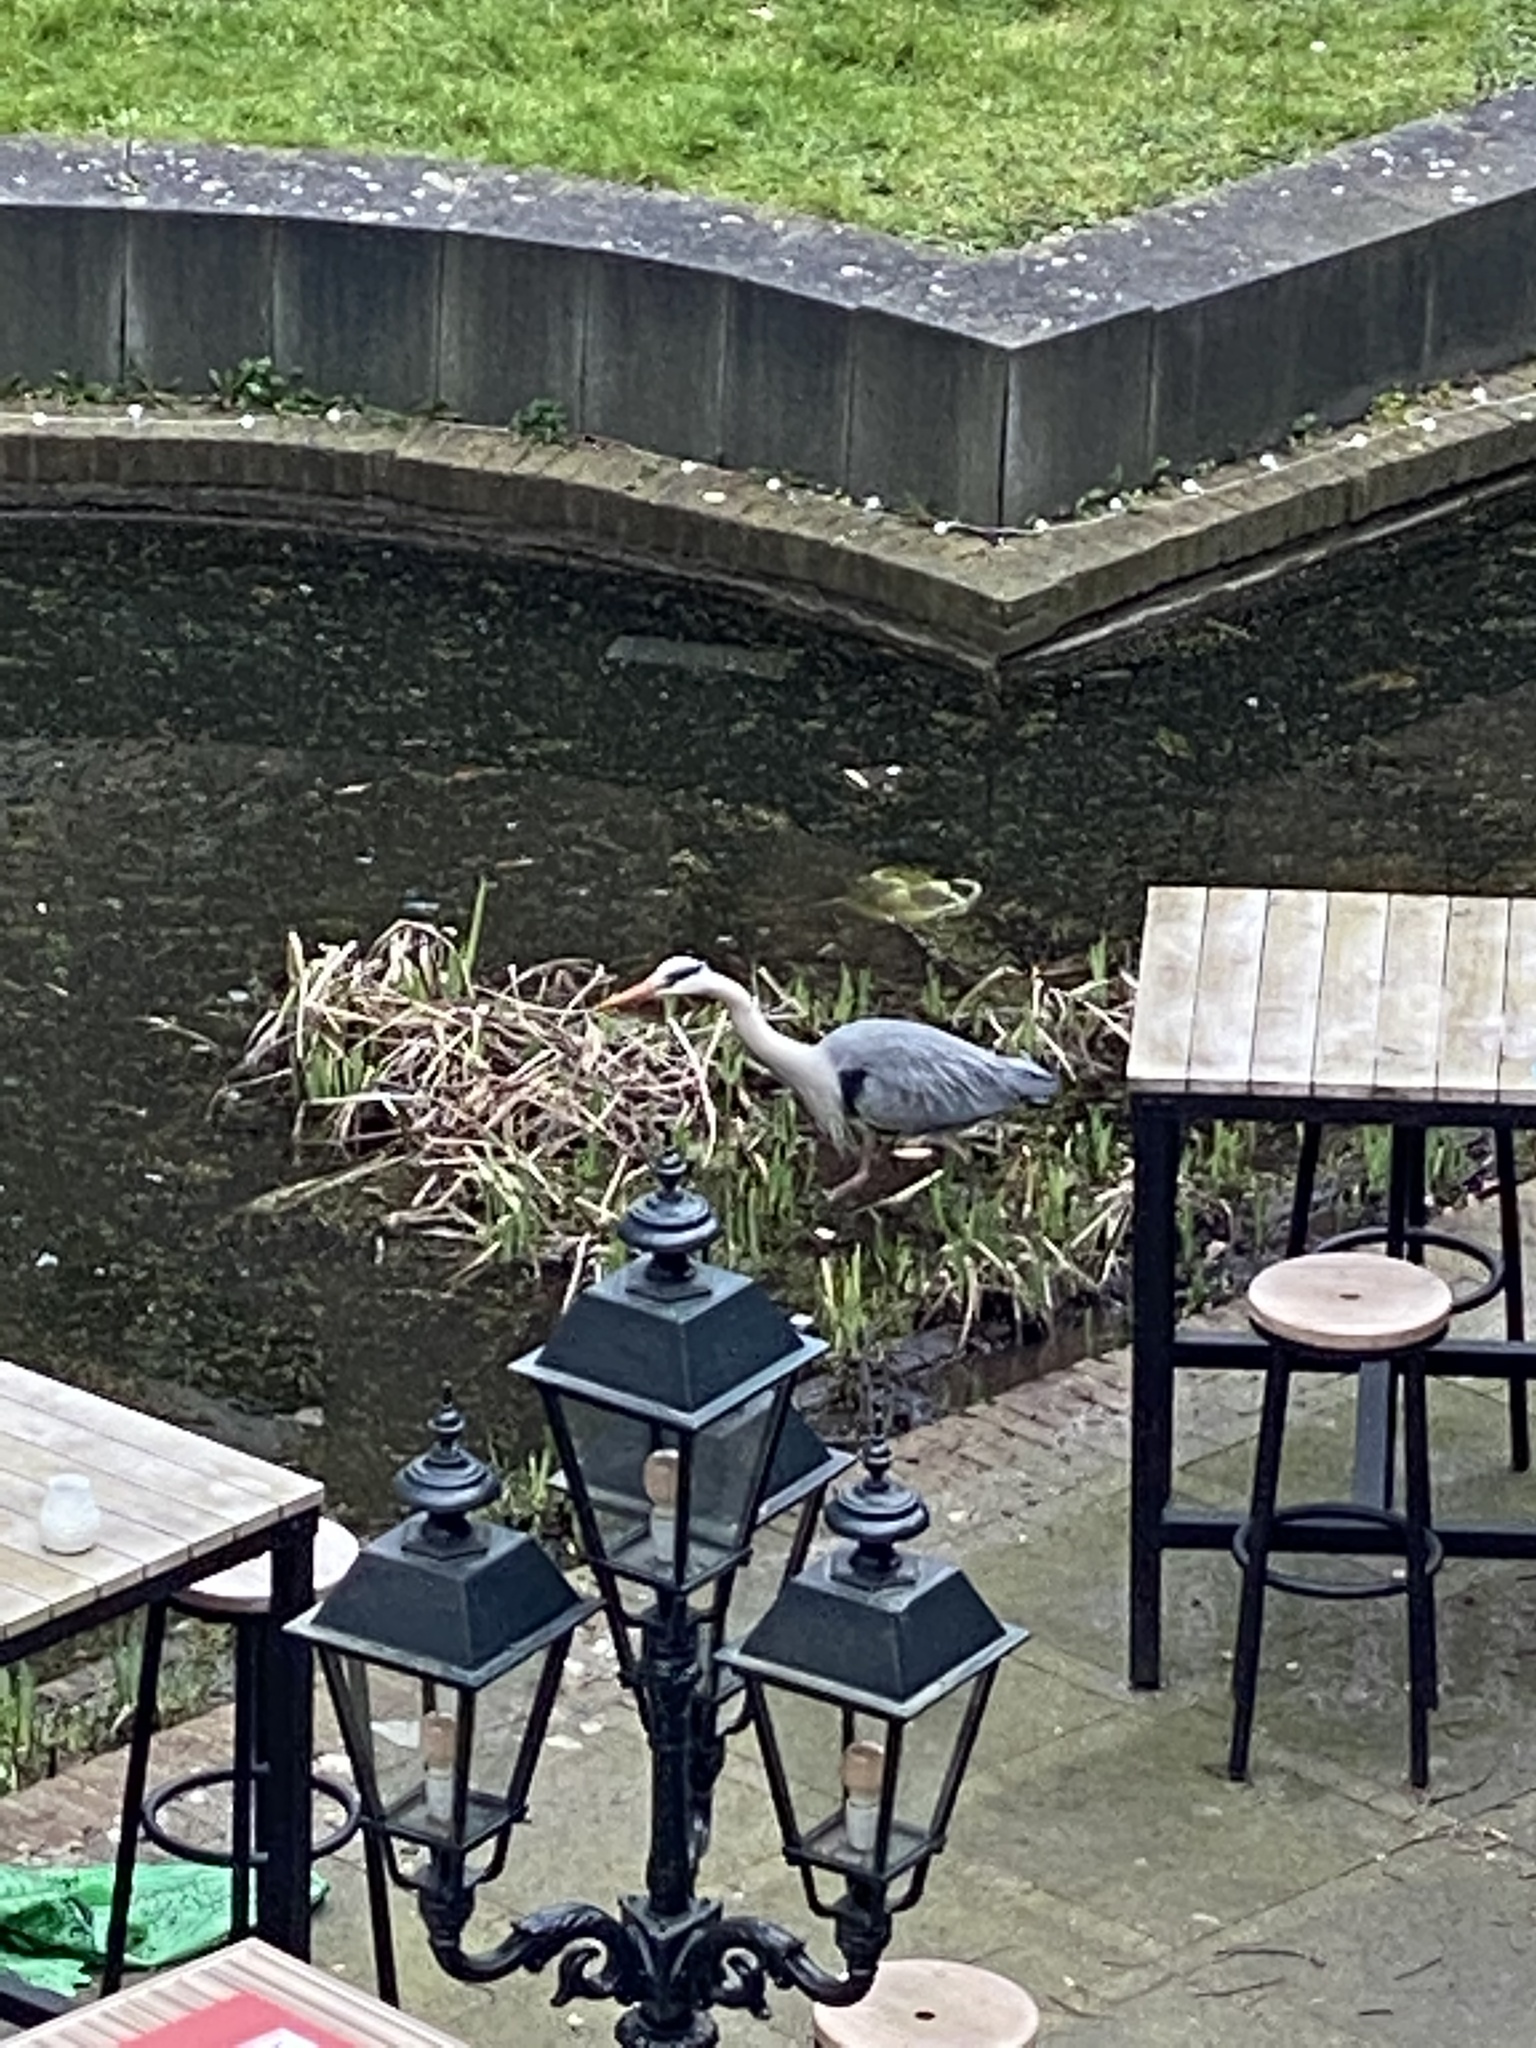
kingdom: Animalia
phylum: Chordata
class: Aves
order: Pelecaniformes
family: Ardeidae
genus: Ardea
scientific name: Ardea cinerea
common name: Grey heron
